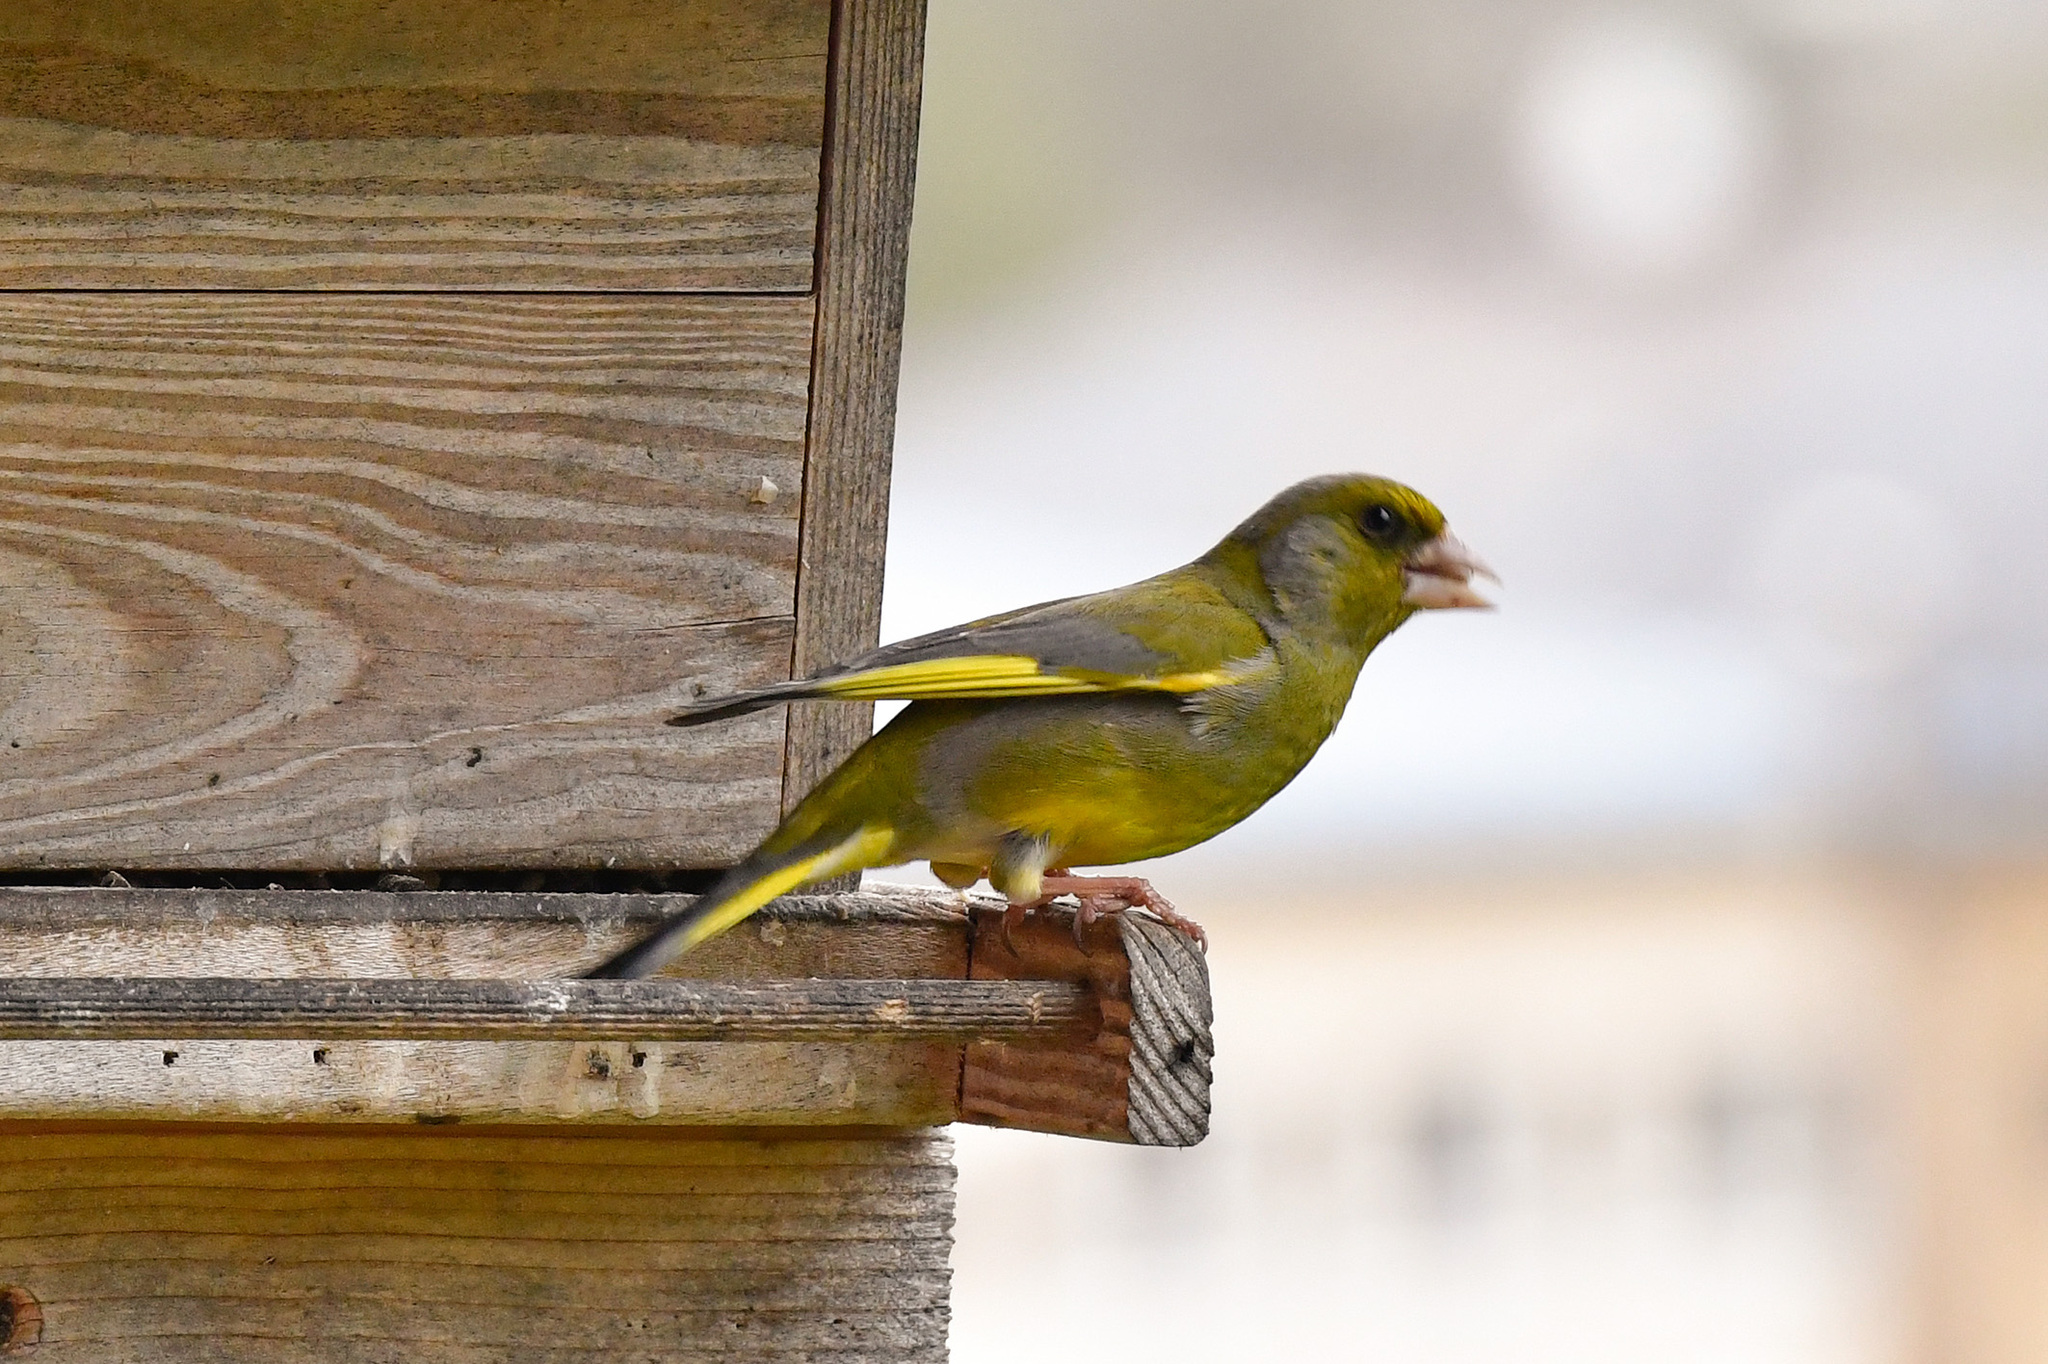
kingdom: Plantae
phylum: Tracheophyta
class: Liliopsida
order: Poales
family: Poaceae
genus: Chloris
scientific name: Chloris chloris
